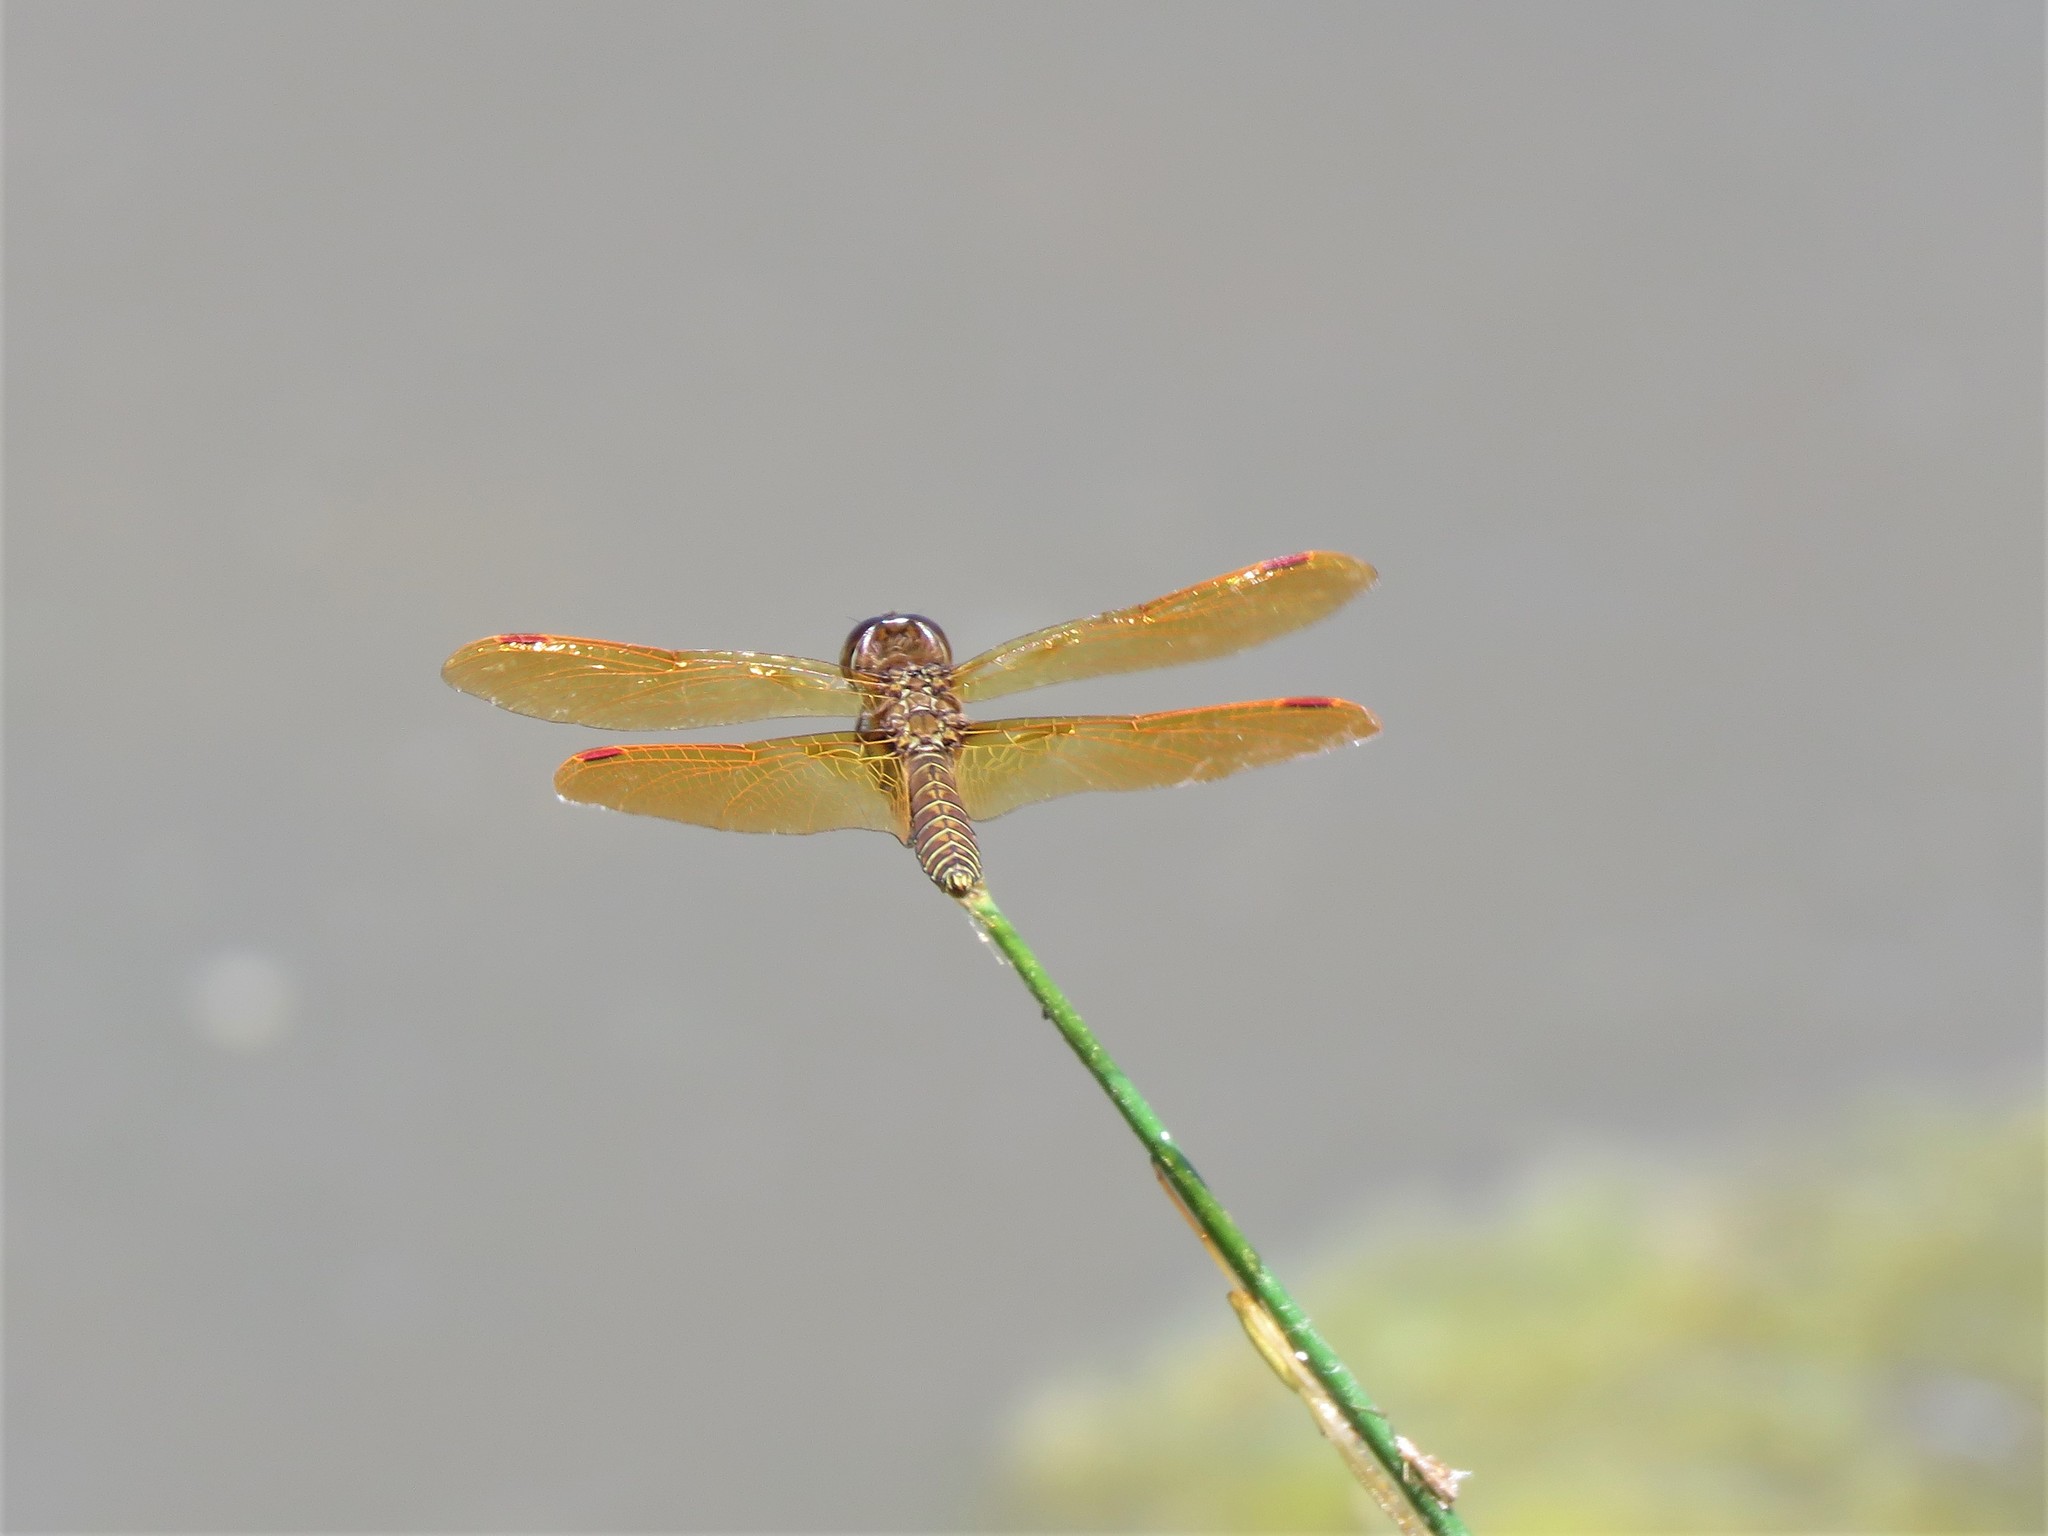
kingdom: Animalia
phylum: Arthropoda
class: Insecta
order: Odonata
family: Libellulidae
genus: Perithemis
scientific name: Perithemis tenera
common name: Eastern amberwing
